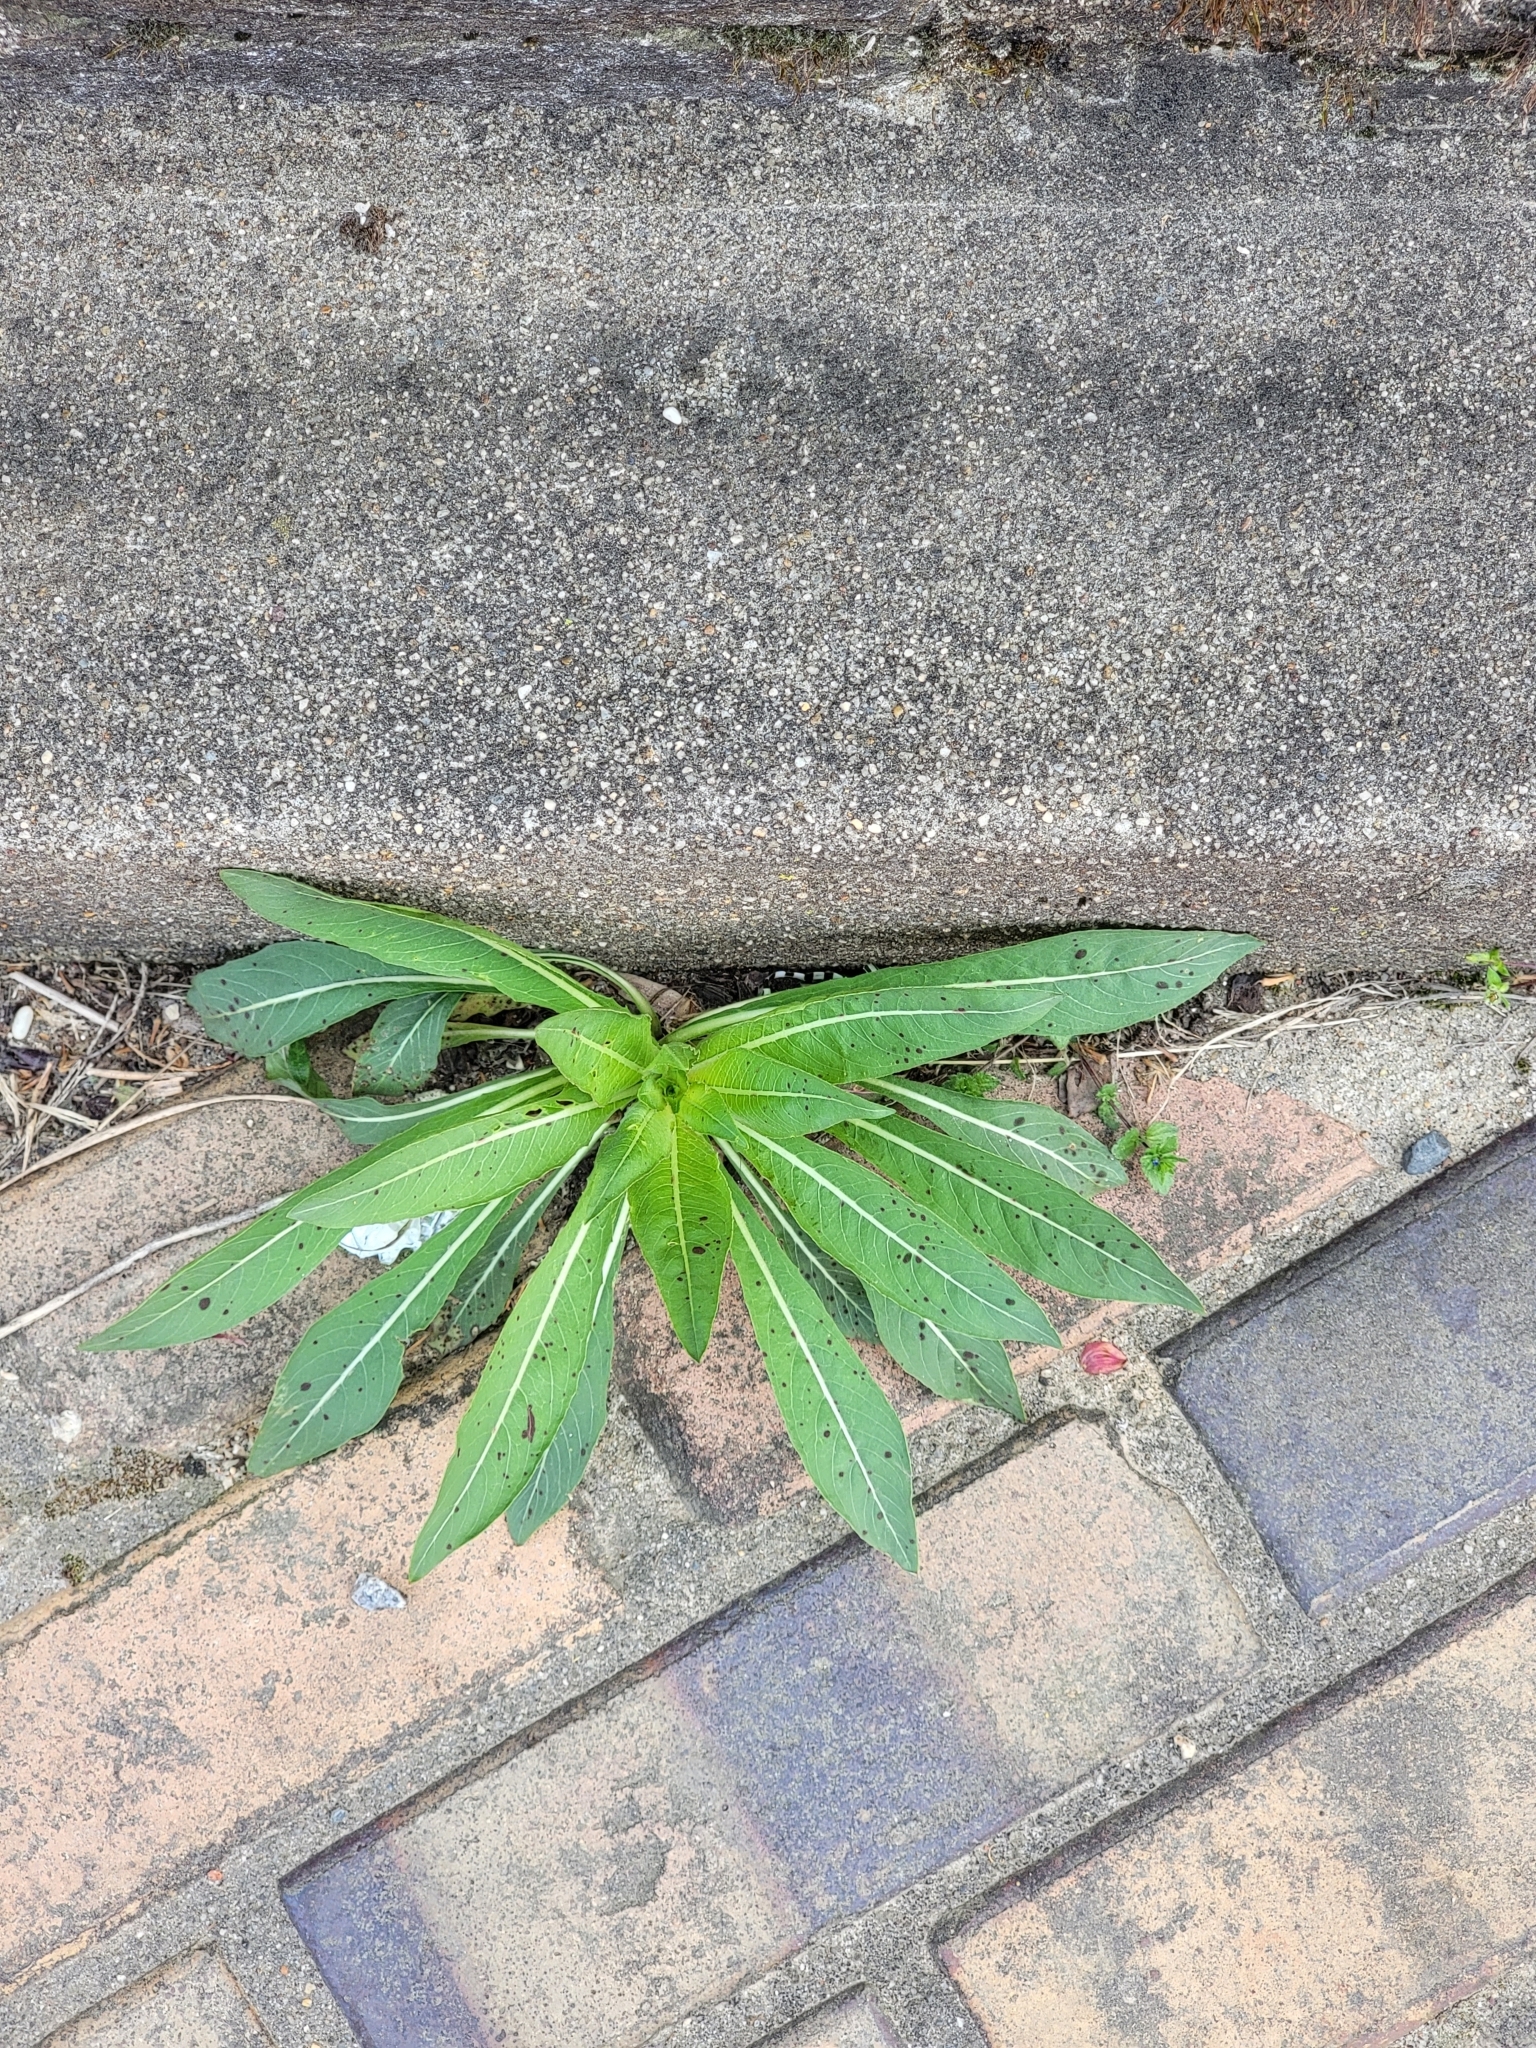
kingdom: Plantae
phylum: Tracheophyta
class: Magnoliopsida
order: Myrtales
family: Onagraceae
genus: Oenothera
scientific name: Oenothera biennis
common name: Common evening-primrose
